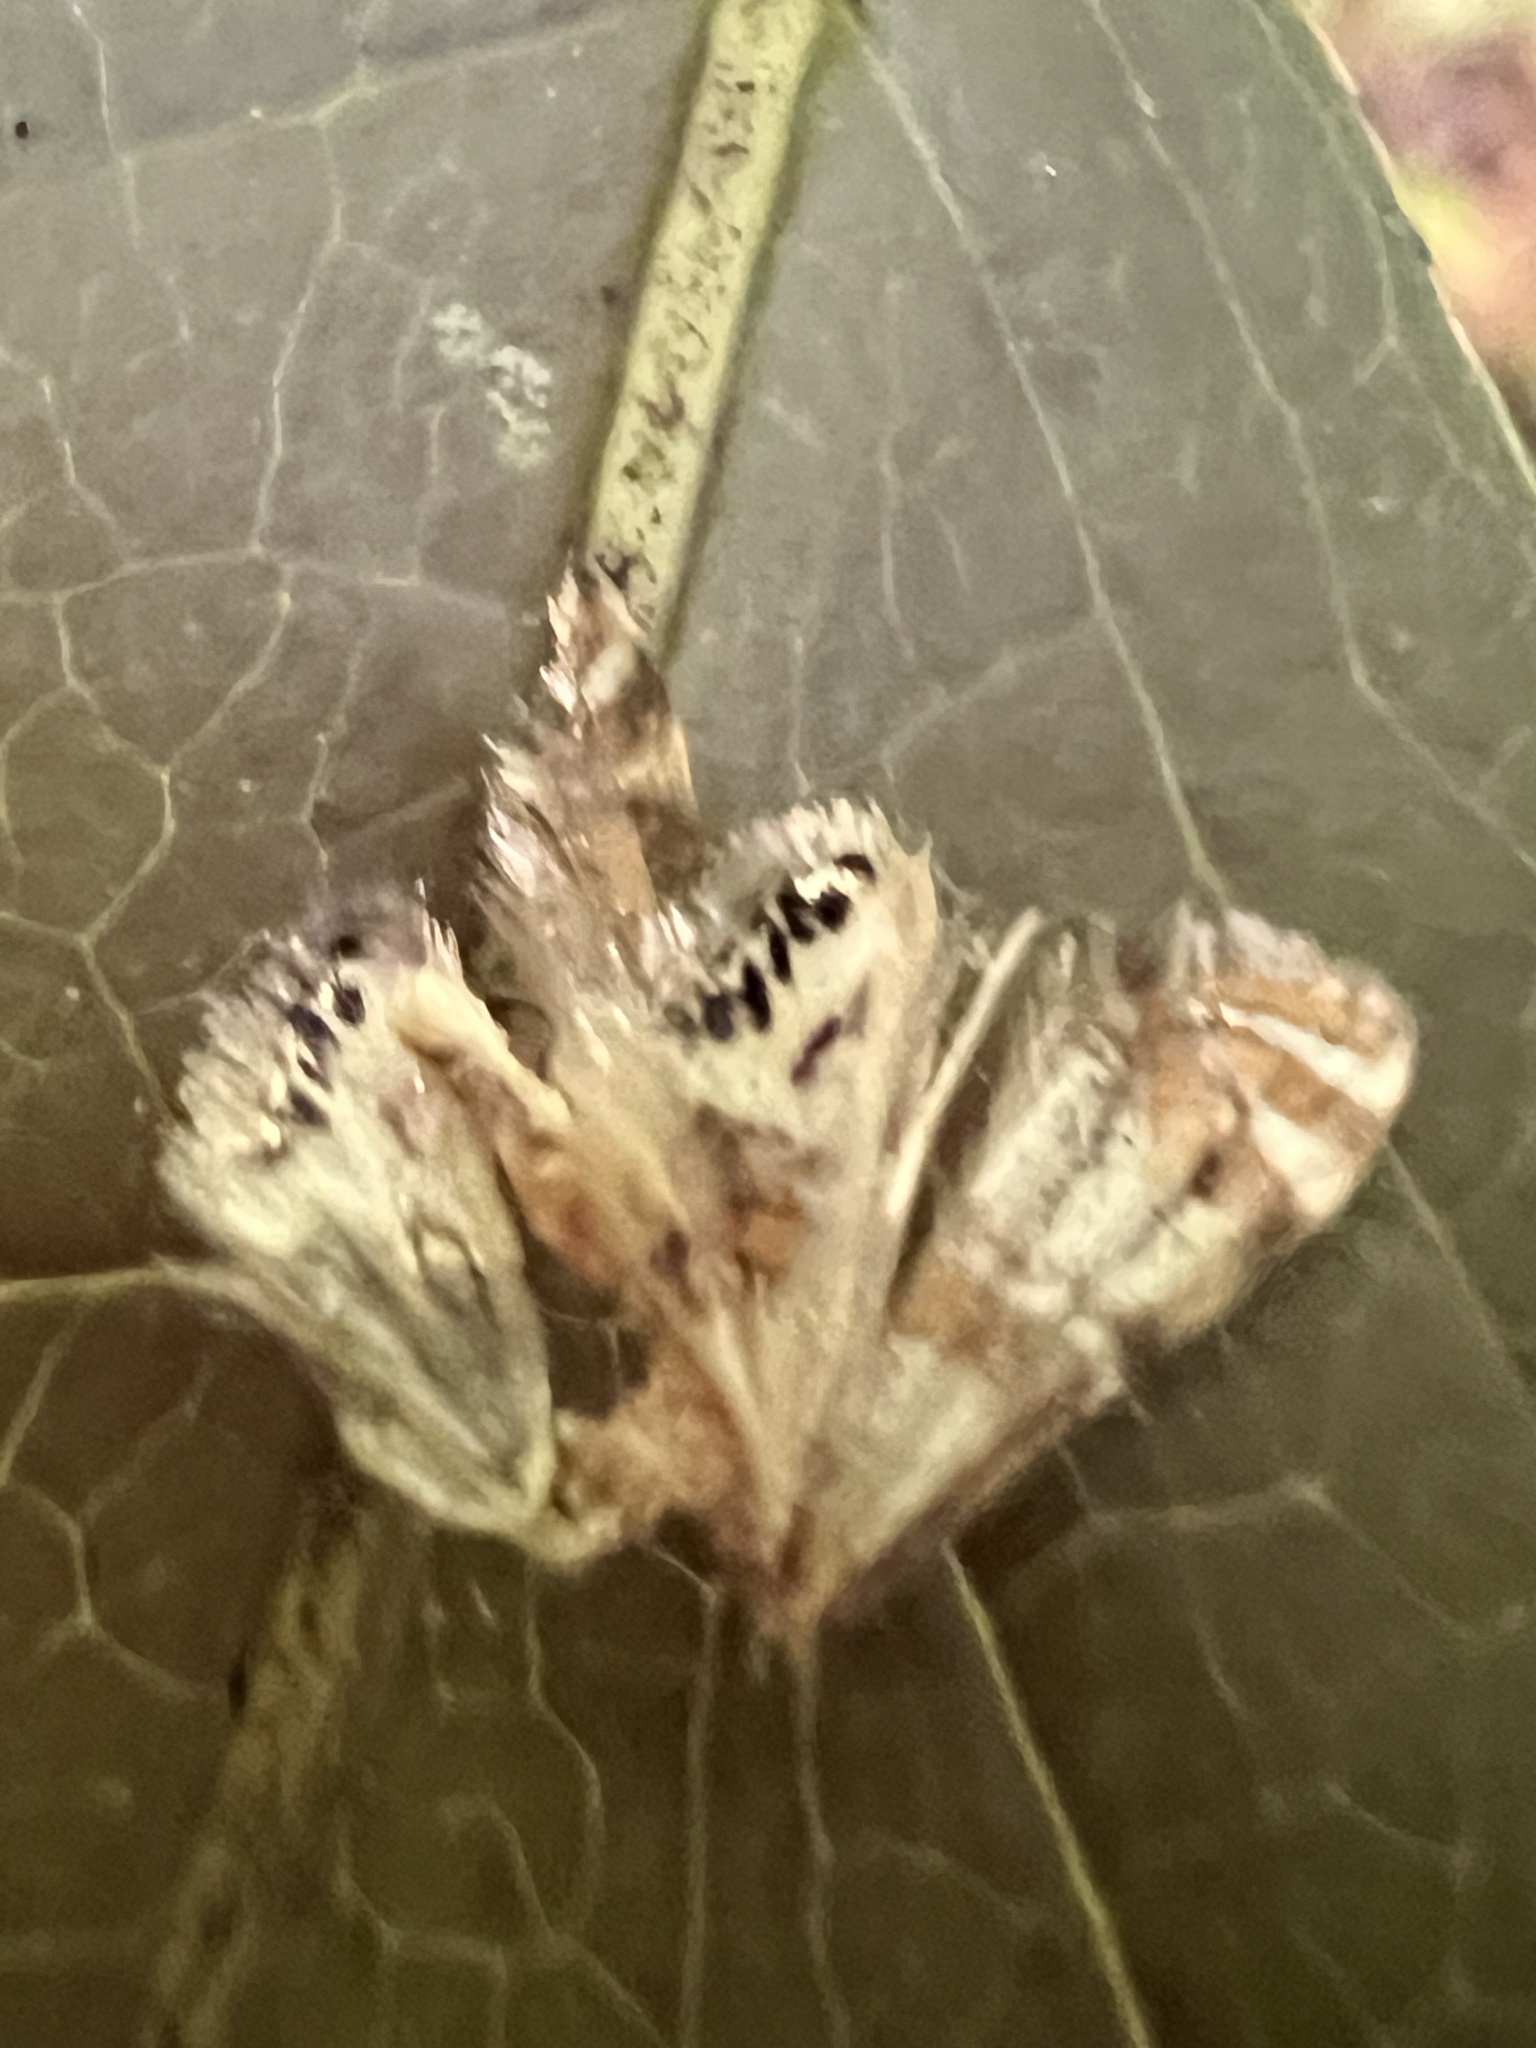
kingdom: Animalia
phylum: Arthropoda
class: Insecta
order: Lepidoptera
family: Crambidae
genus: Petrophila
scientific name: Petrophila bifascialis
